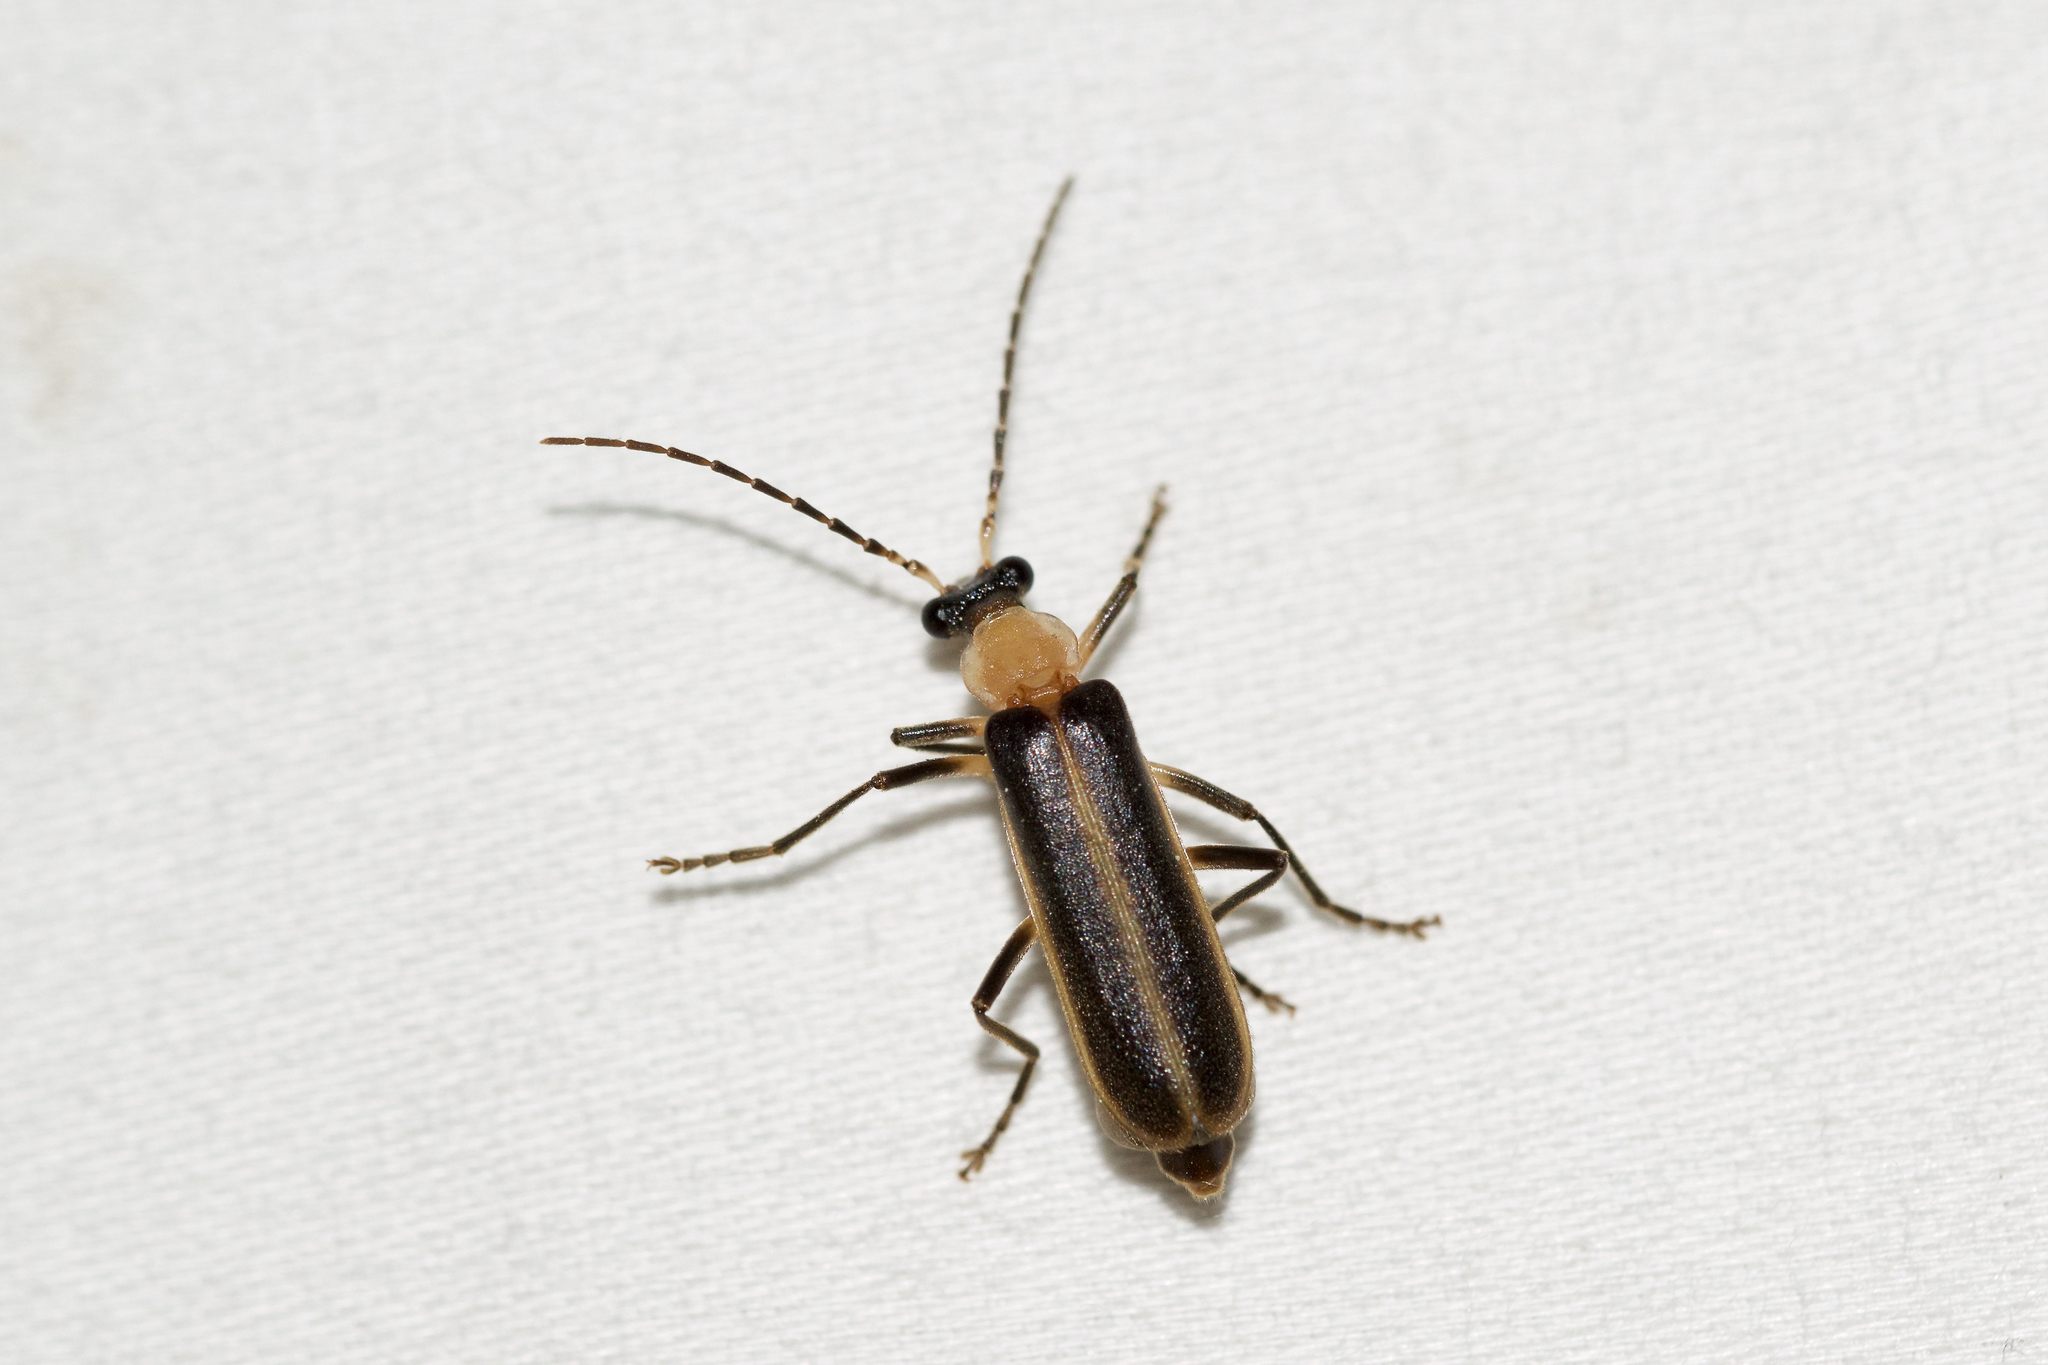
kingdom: Animalia
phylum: Arthropoda
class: Insecta
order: Coleoptera
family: Cantharidae
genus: Podabrus
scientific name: Podabrus flavicollis
